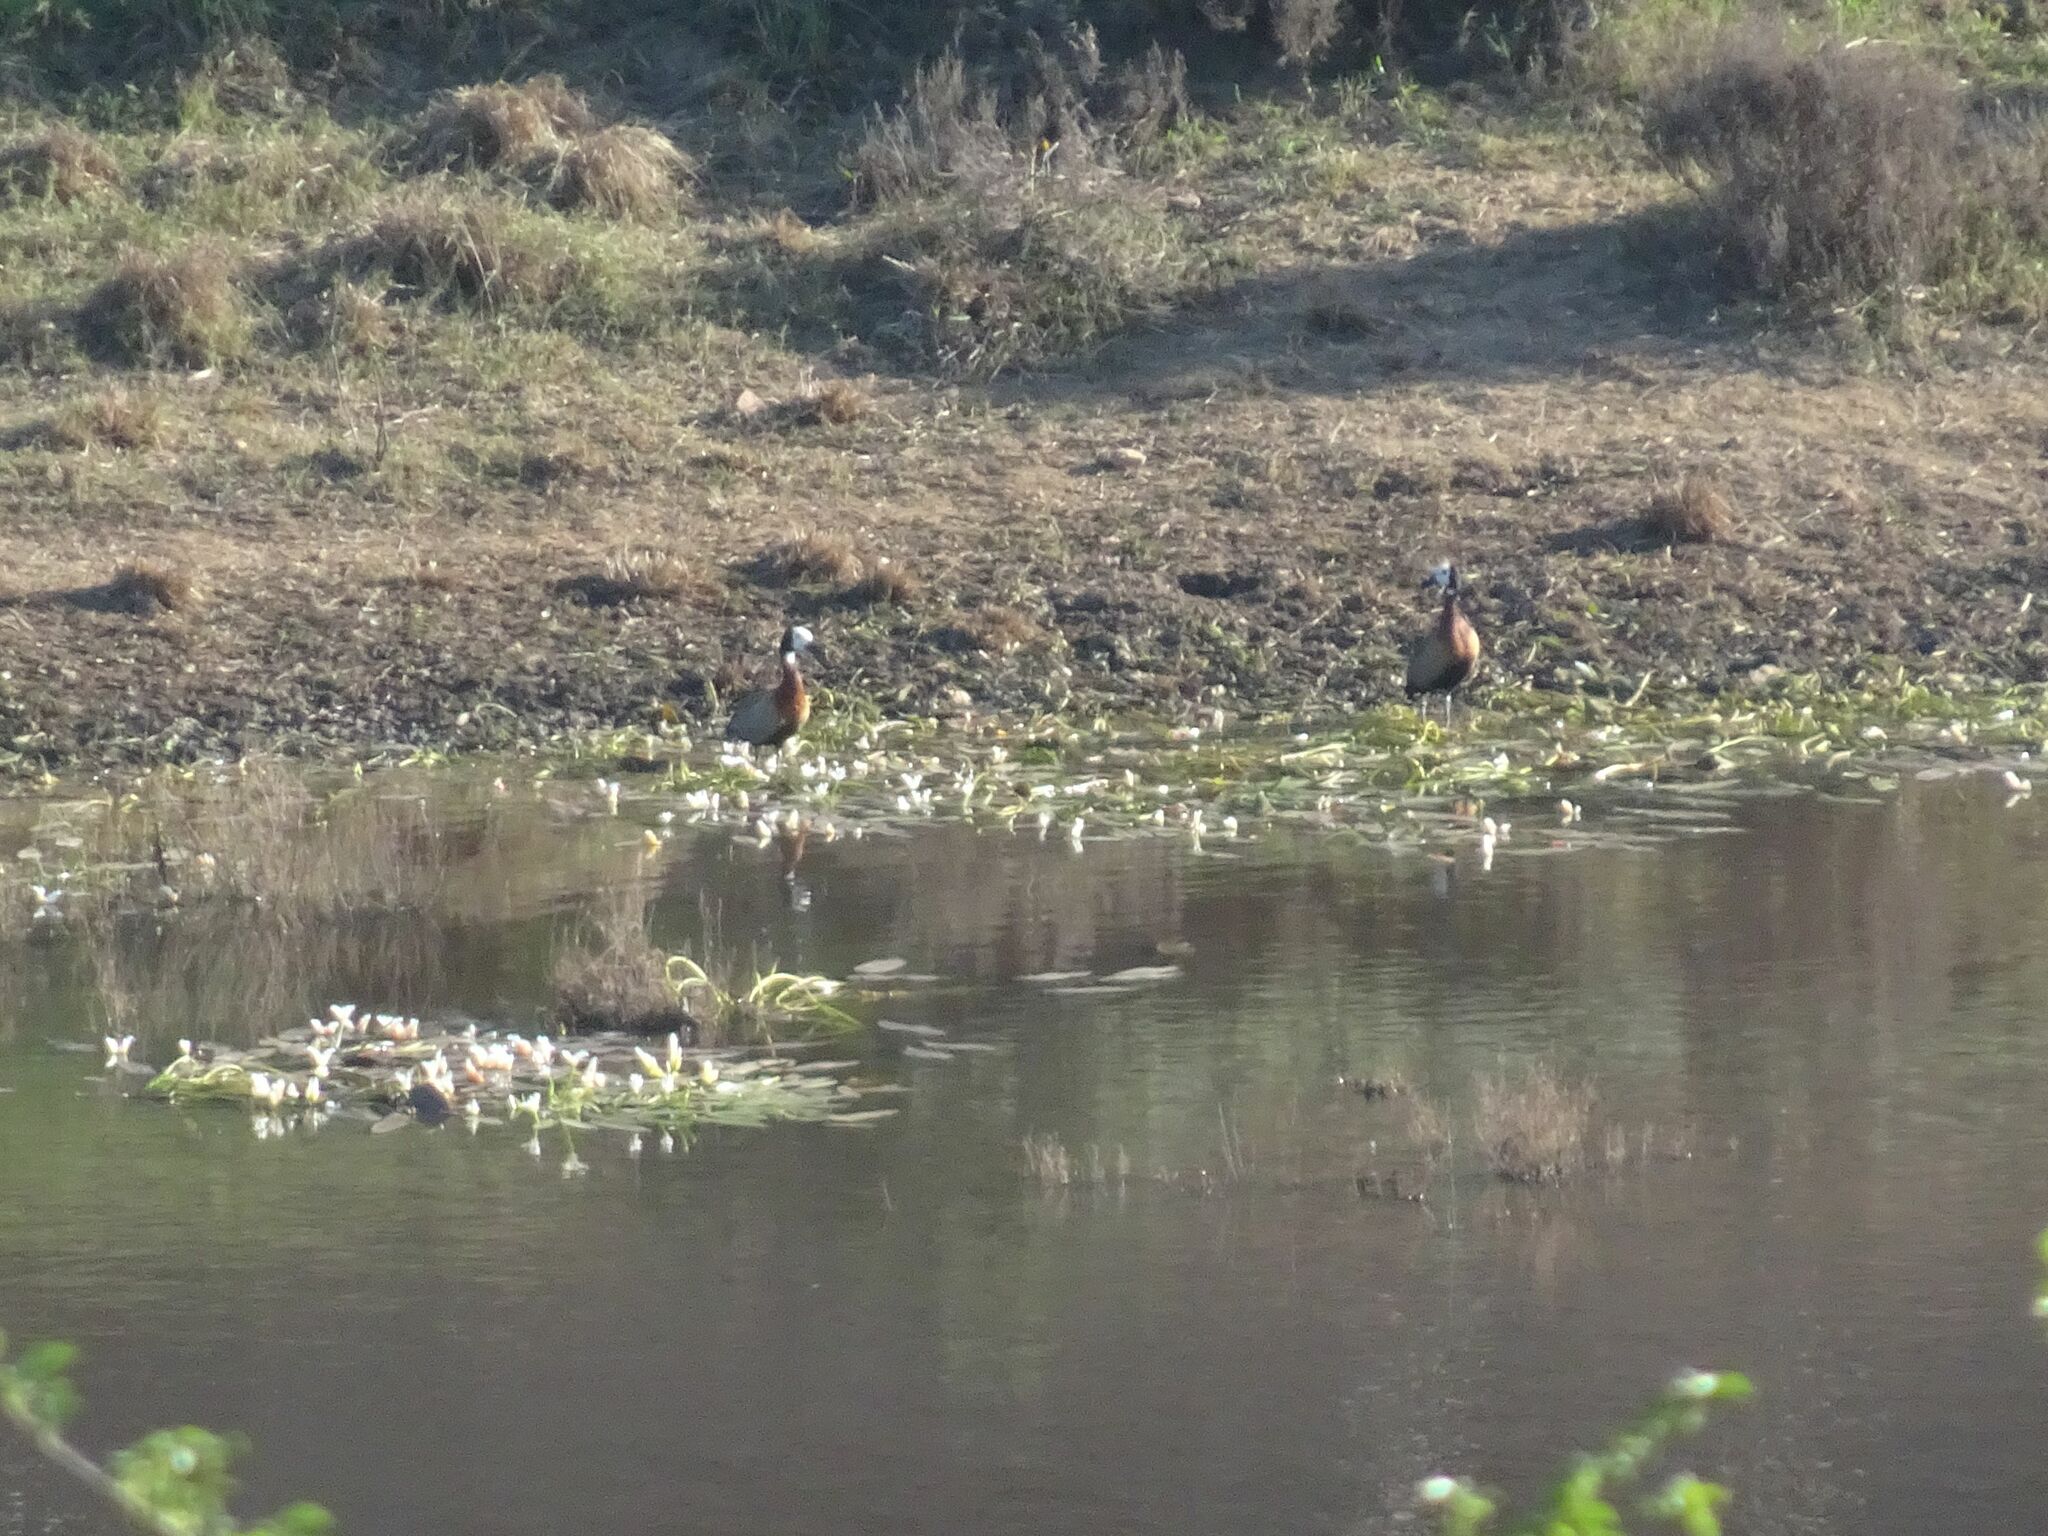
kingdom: Animalia
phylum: Chordata
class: Aves
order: Anseriformes
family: Anatidae
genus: Dendrocygna
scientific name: Dendrocygna viduata
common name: White-faced whistling duck
